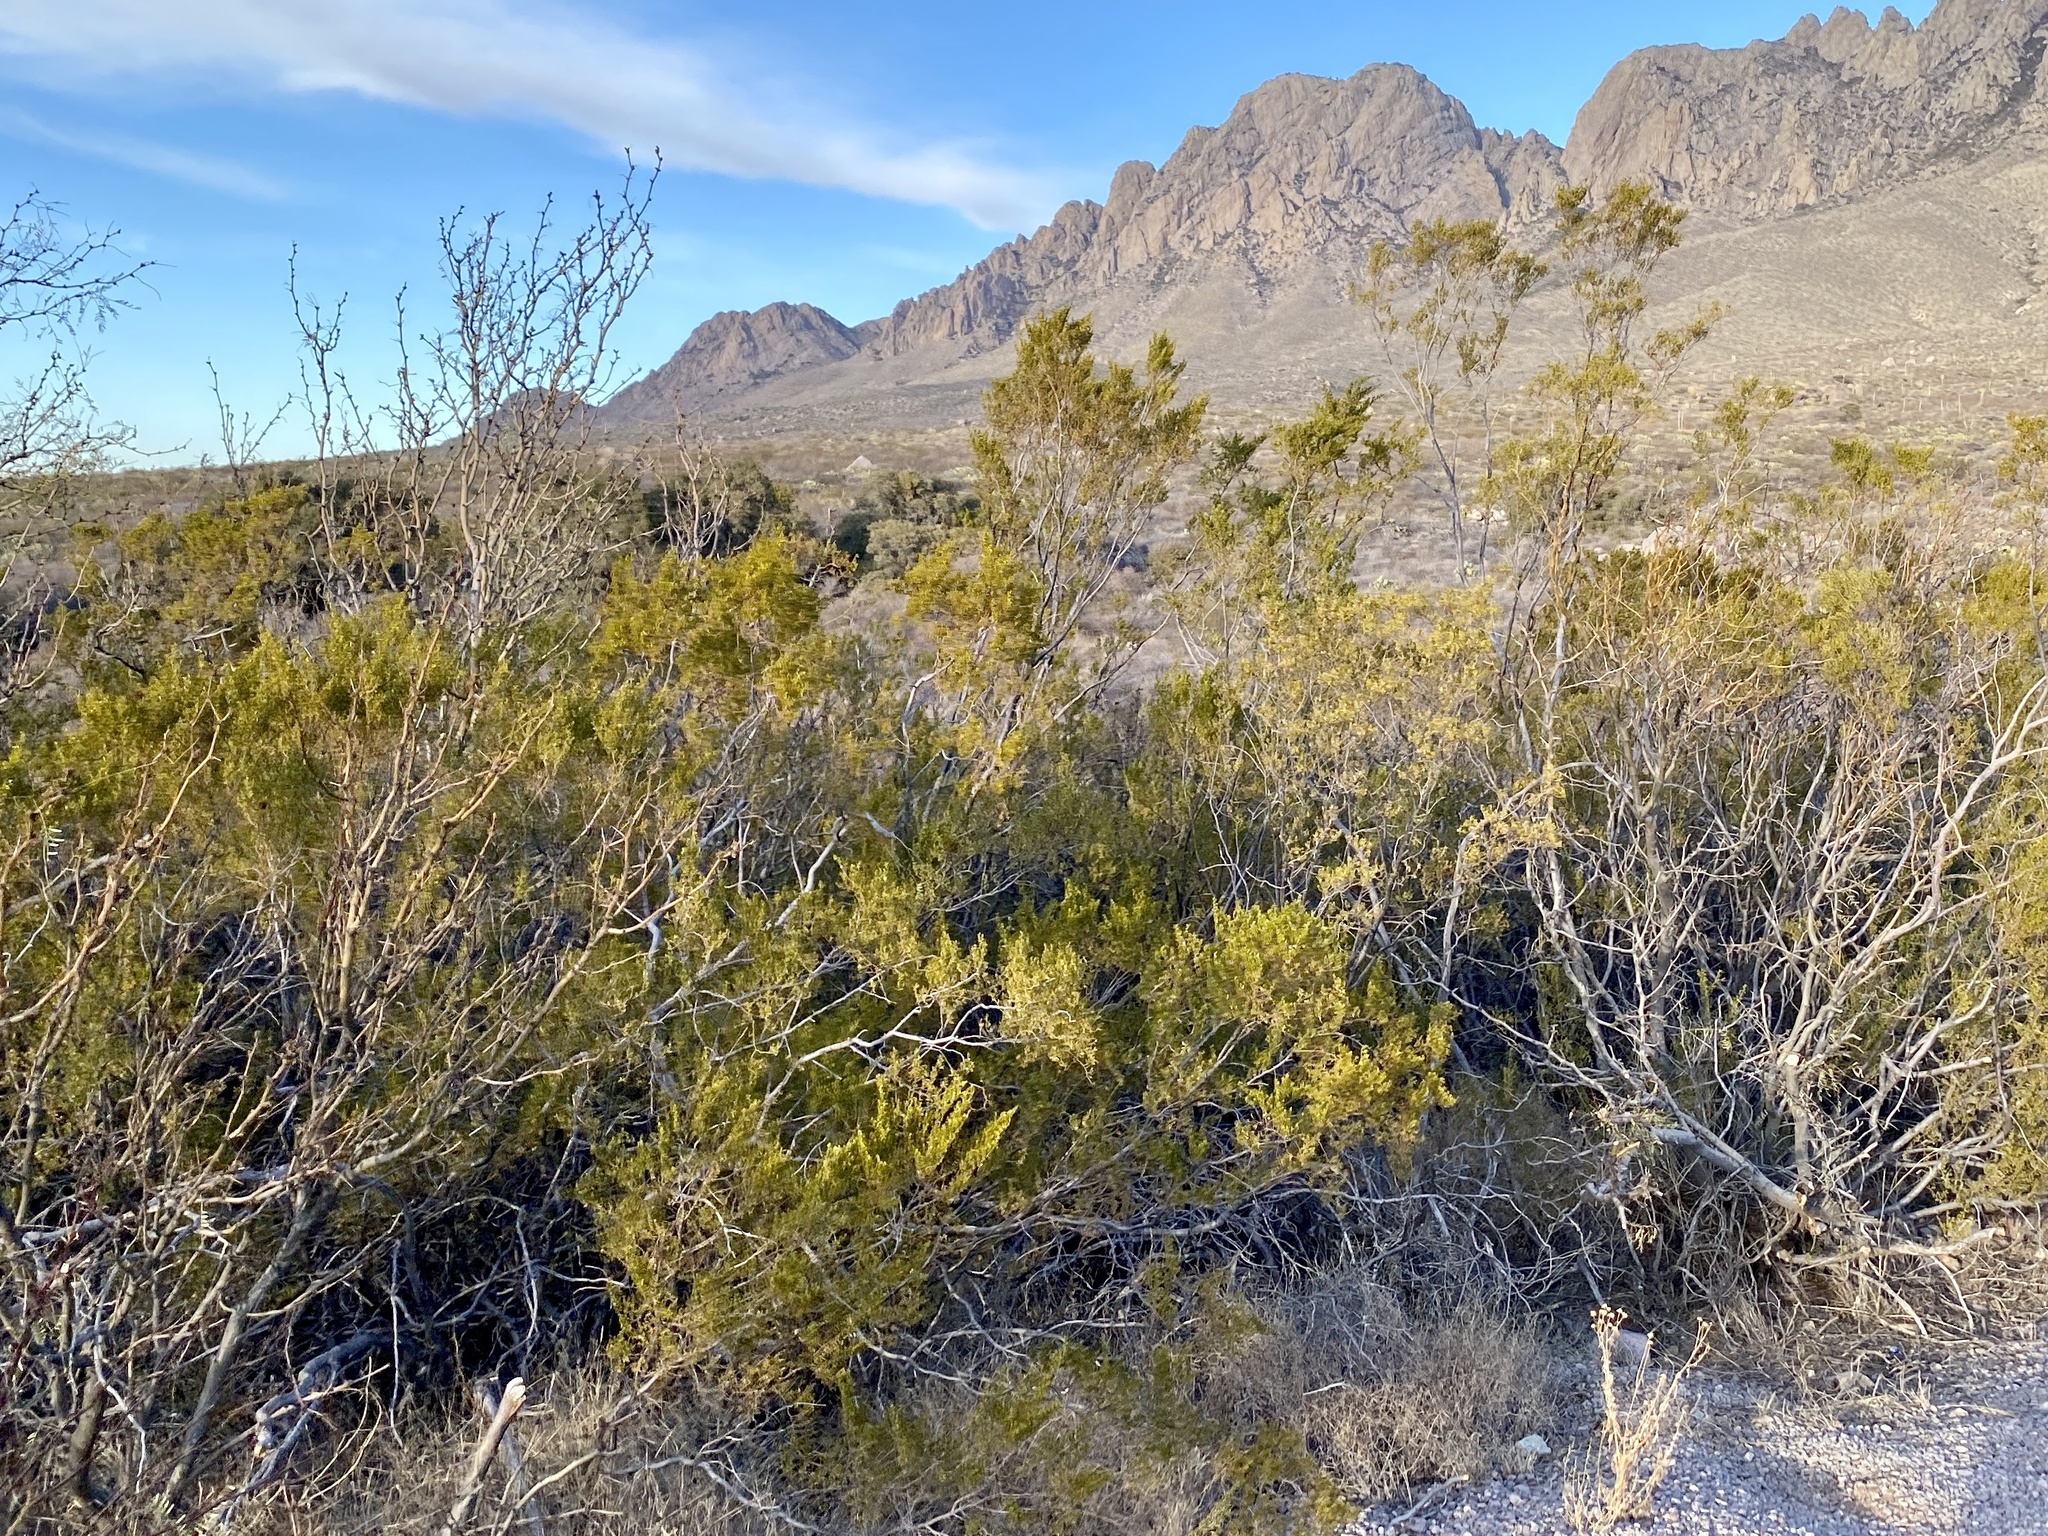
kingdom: Plantae
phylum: Tracheophyta
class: Magnoliopsida
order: Zygophyllales
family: Zygophyllaceae
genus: Larrea
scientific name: Larrea tridentata
